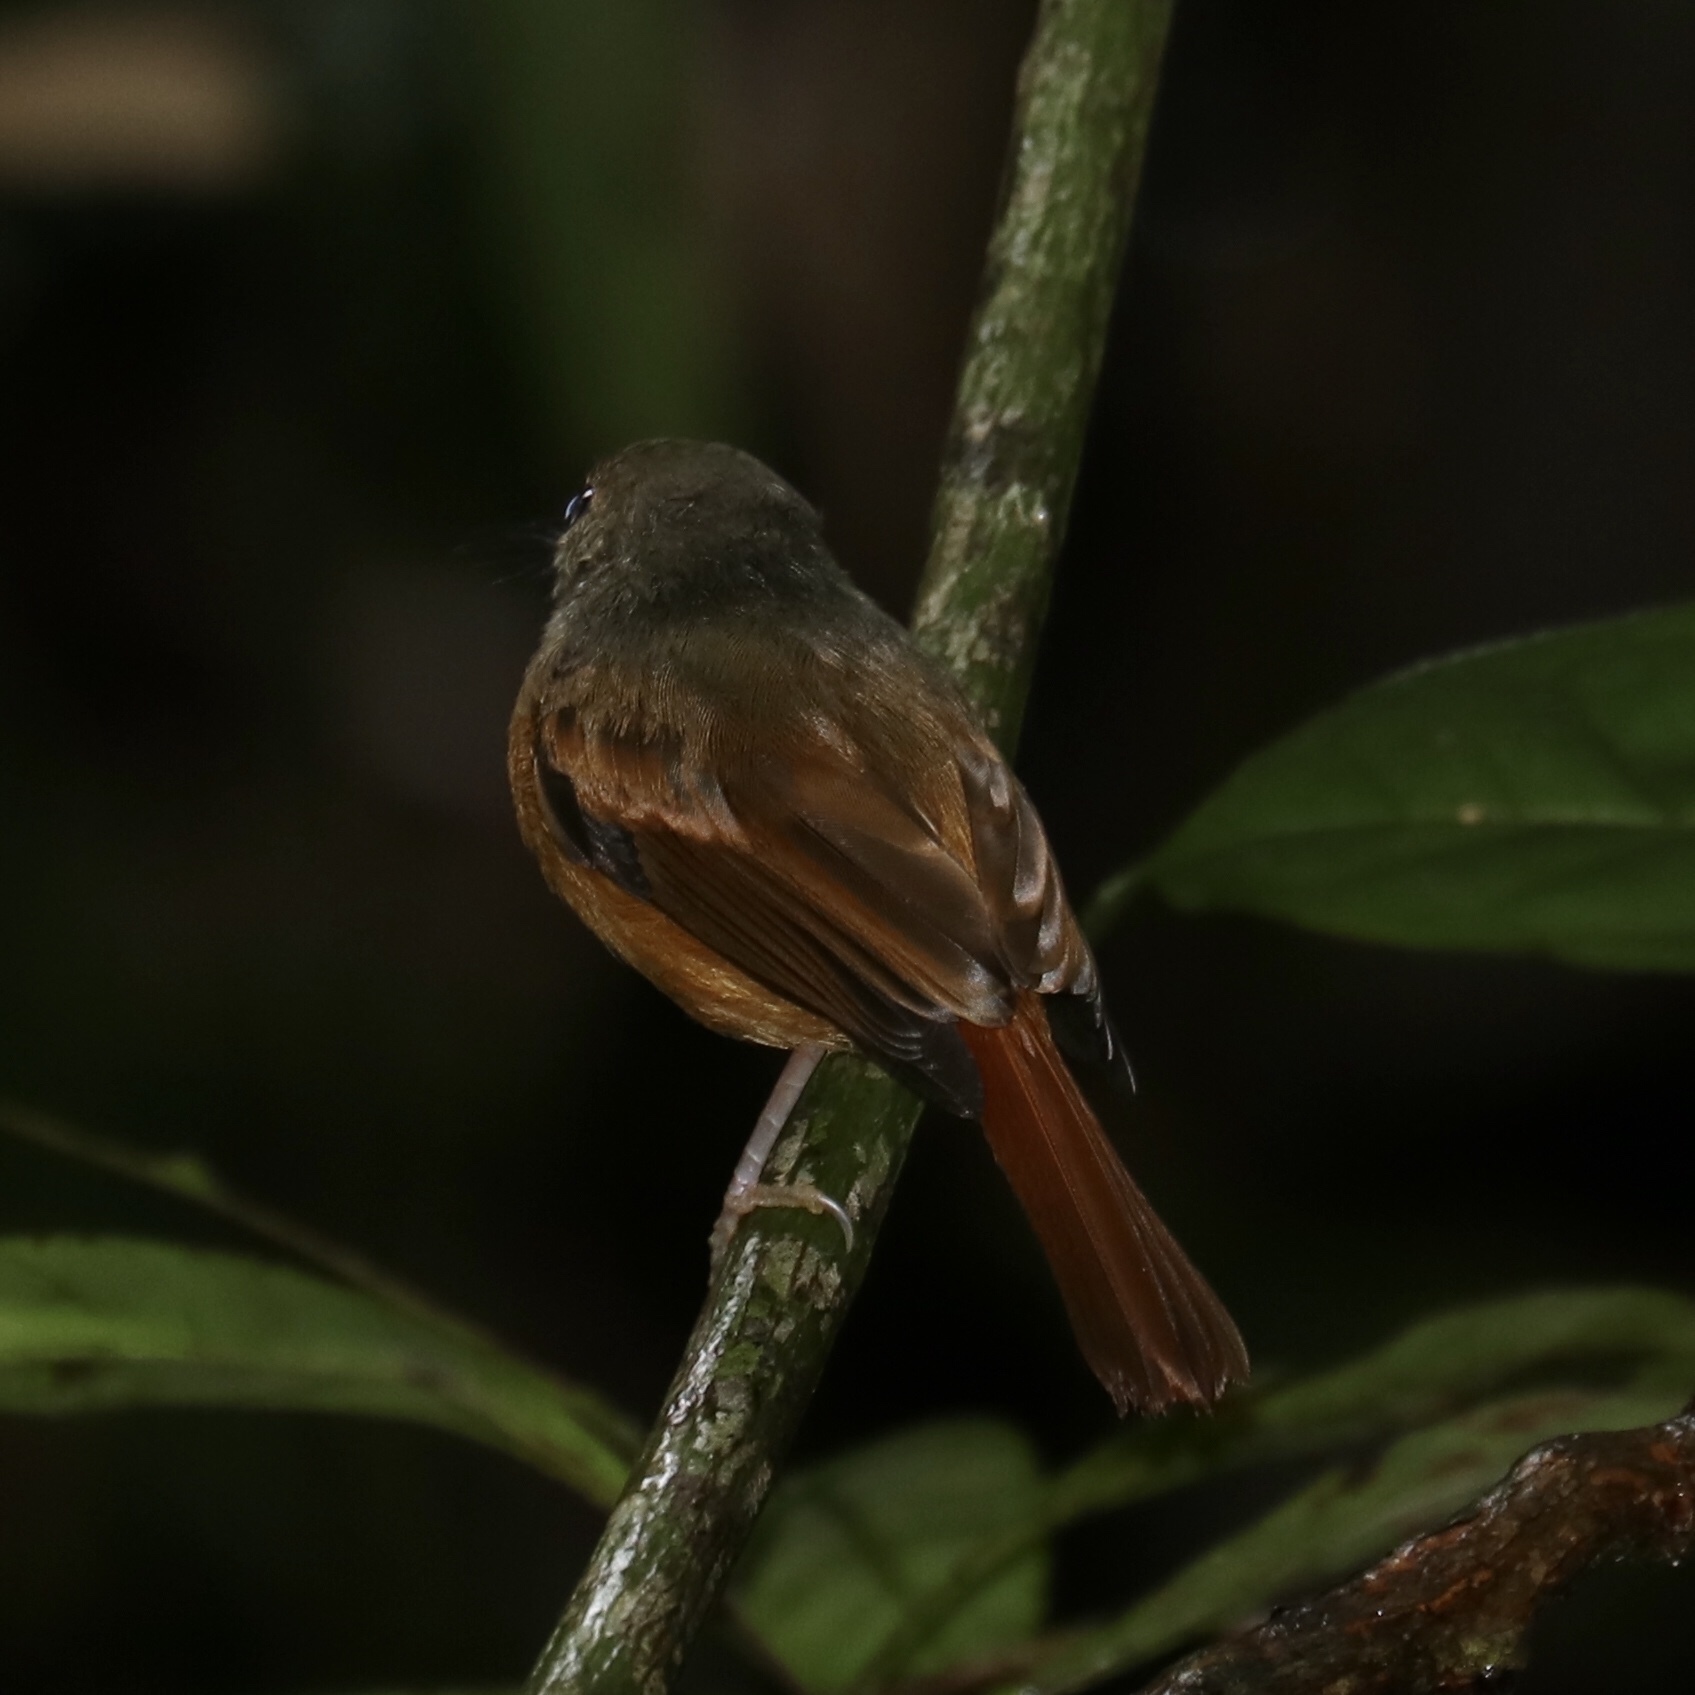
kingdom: Animalia
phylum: Chordata
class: Aves
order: Passeriformes
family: Tyrannidae
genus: Terenotriccus
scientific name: Terenotriccus erythrurus
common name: Ruddy-tailed flycatcher
